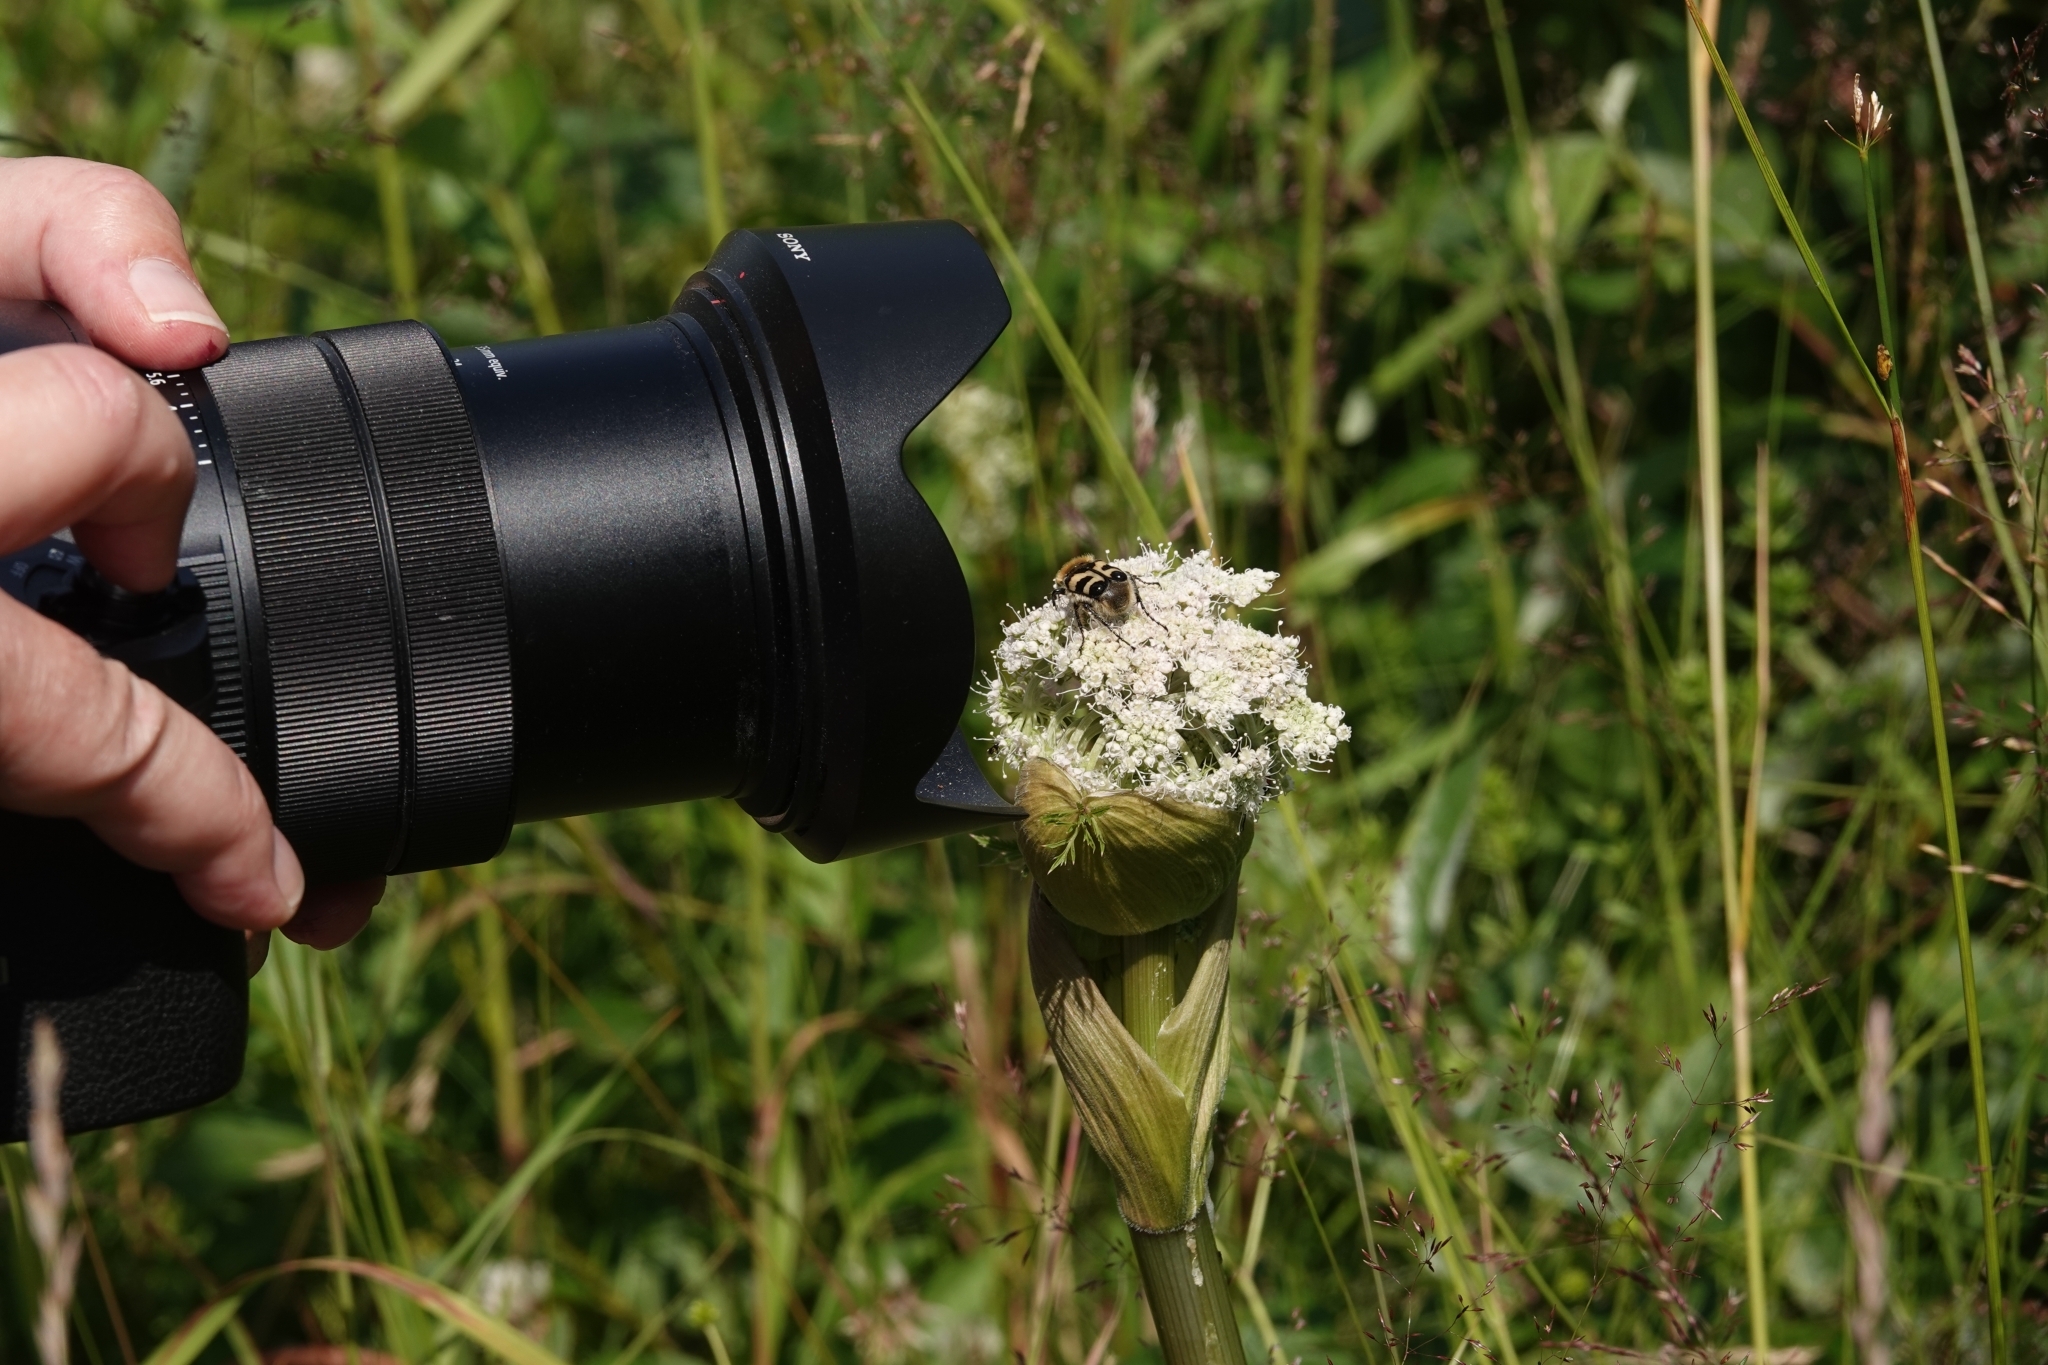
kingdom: Animalia
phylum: Arthropoda
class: Insecta
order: Coleoptera
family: Scarabaeidae
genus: Trichius
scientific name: Trichius fasciatus
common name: Bee beetle
